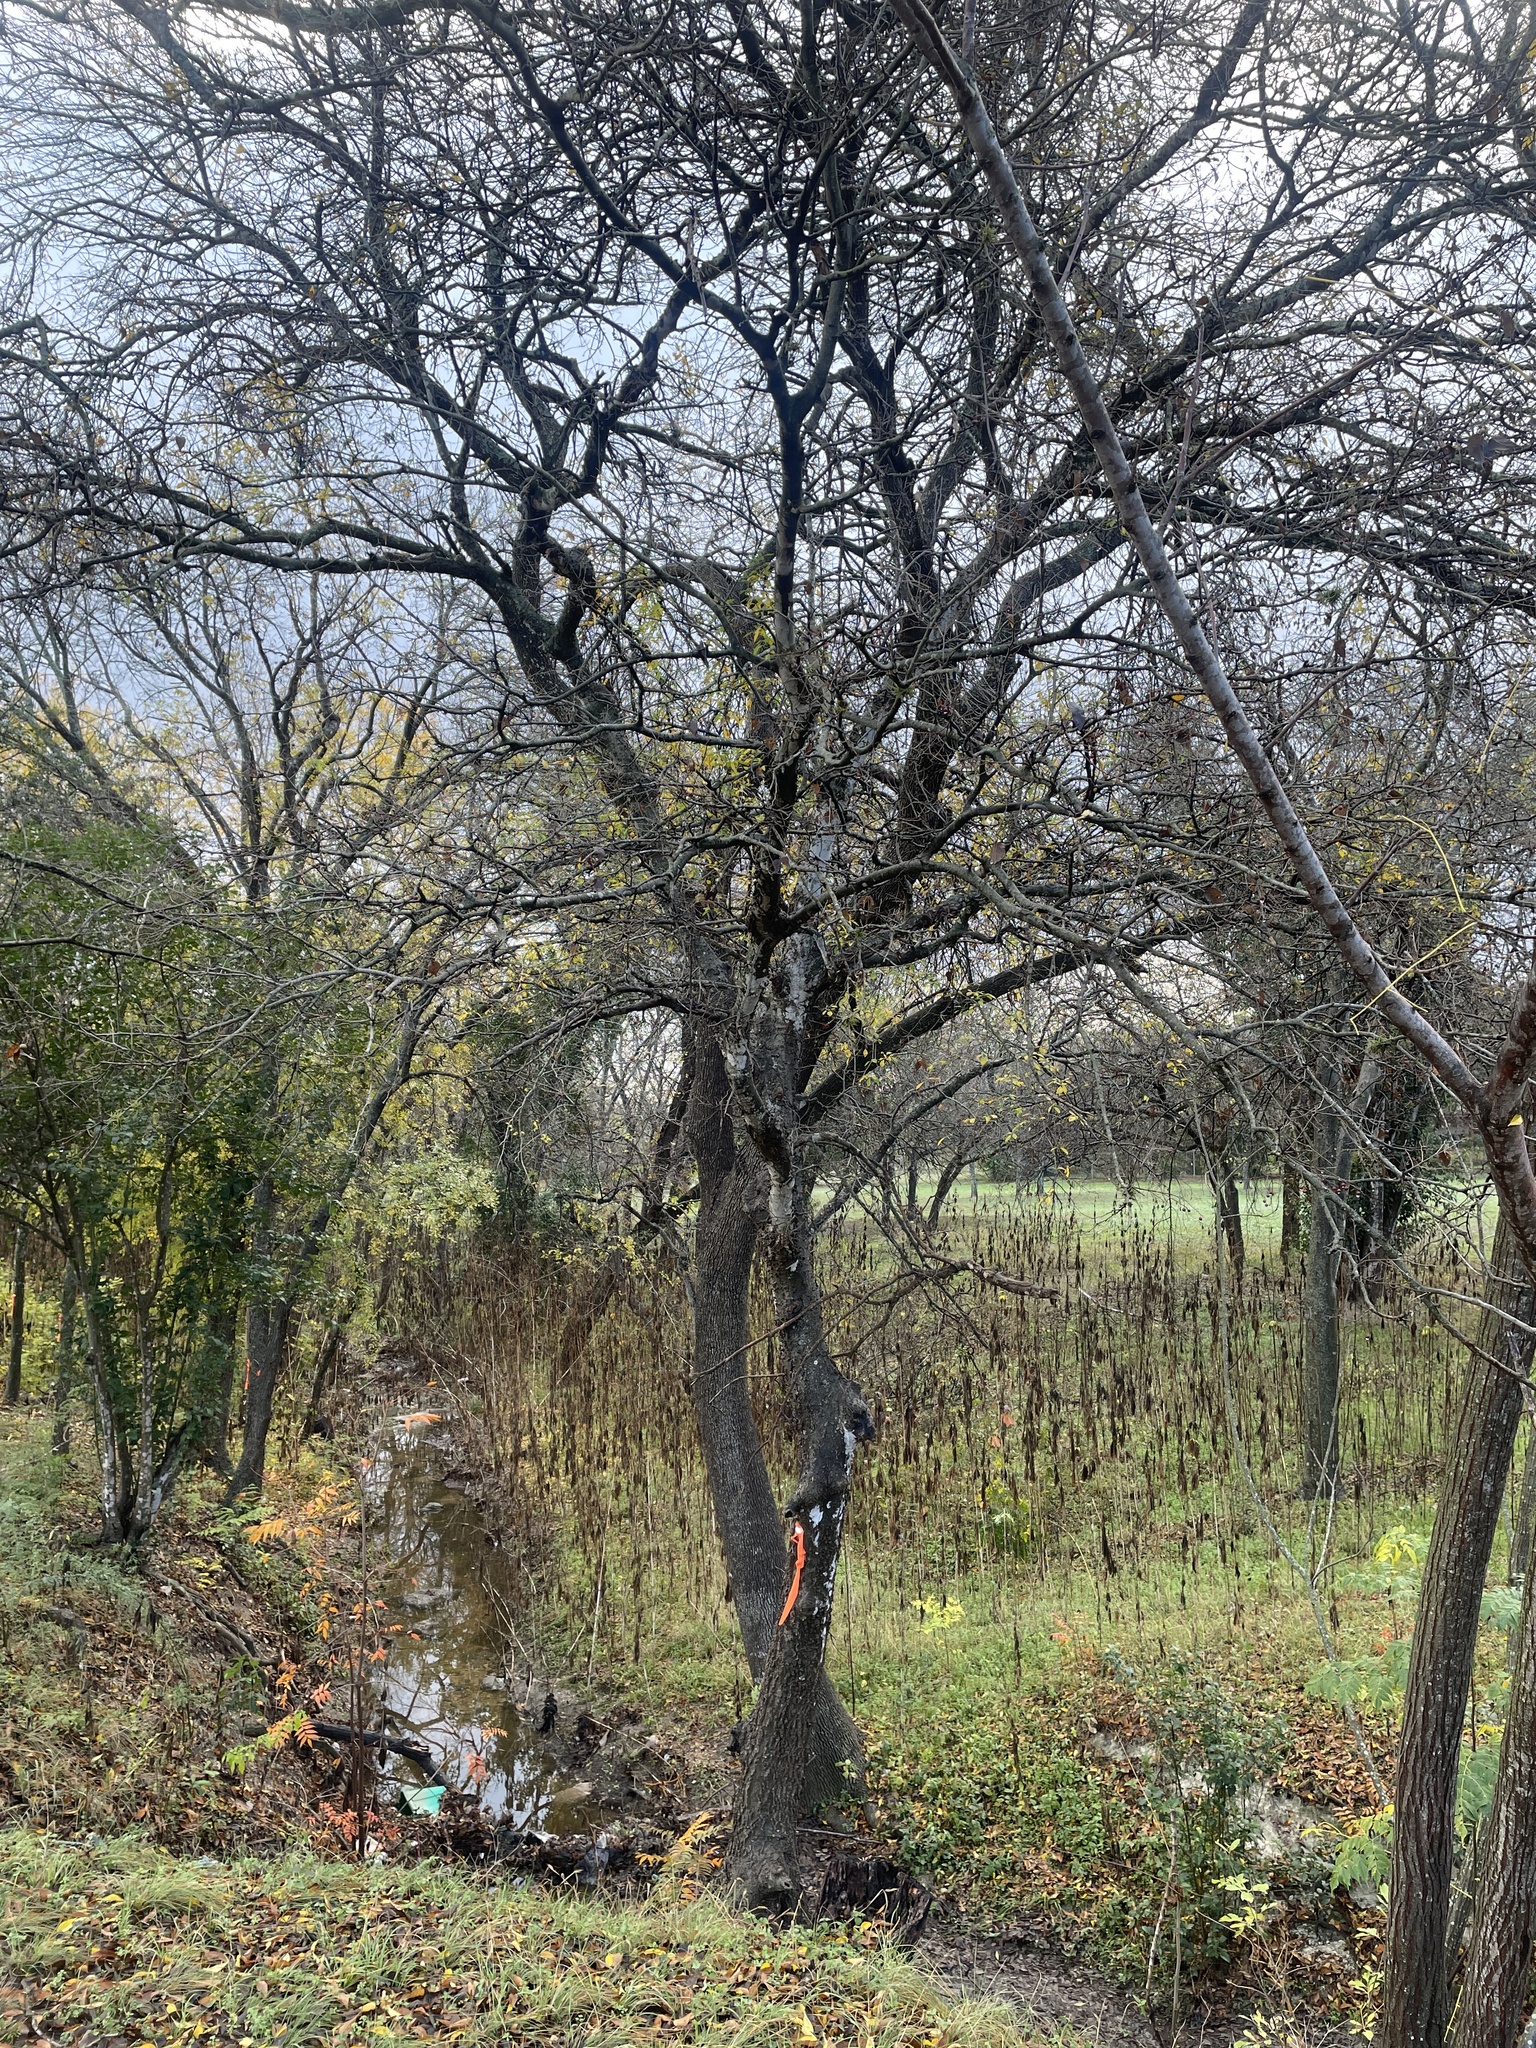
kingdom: Plantae
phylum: Tracheophyta
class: Magnoliopsida
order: Rosales
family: Cannabaceae
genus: Celtis
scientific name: Celtis laevigata
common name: Sugarberry
